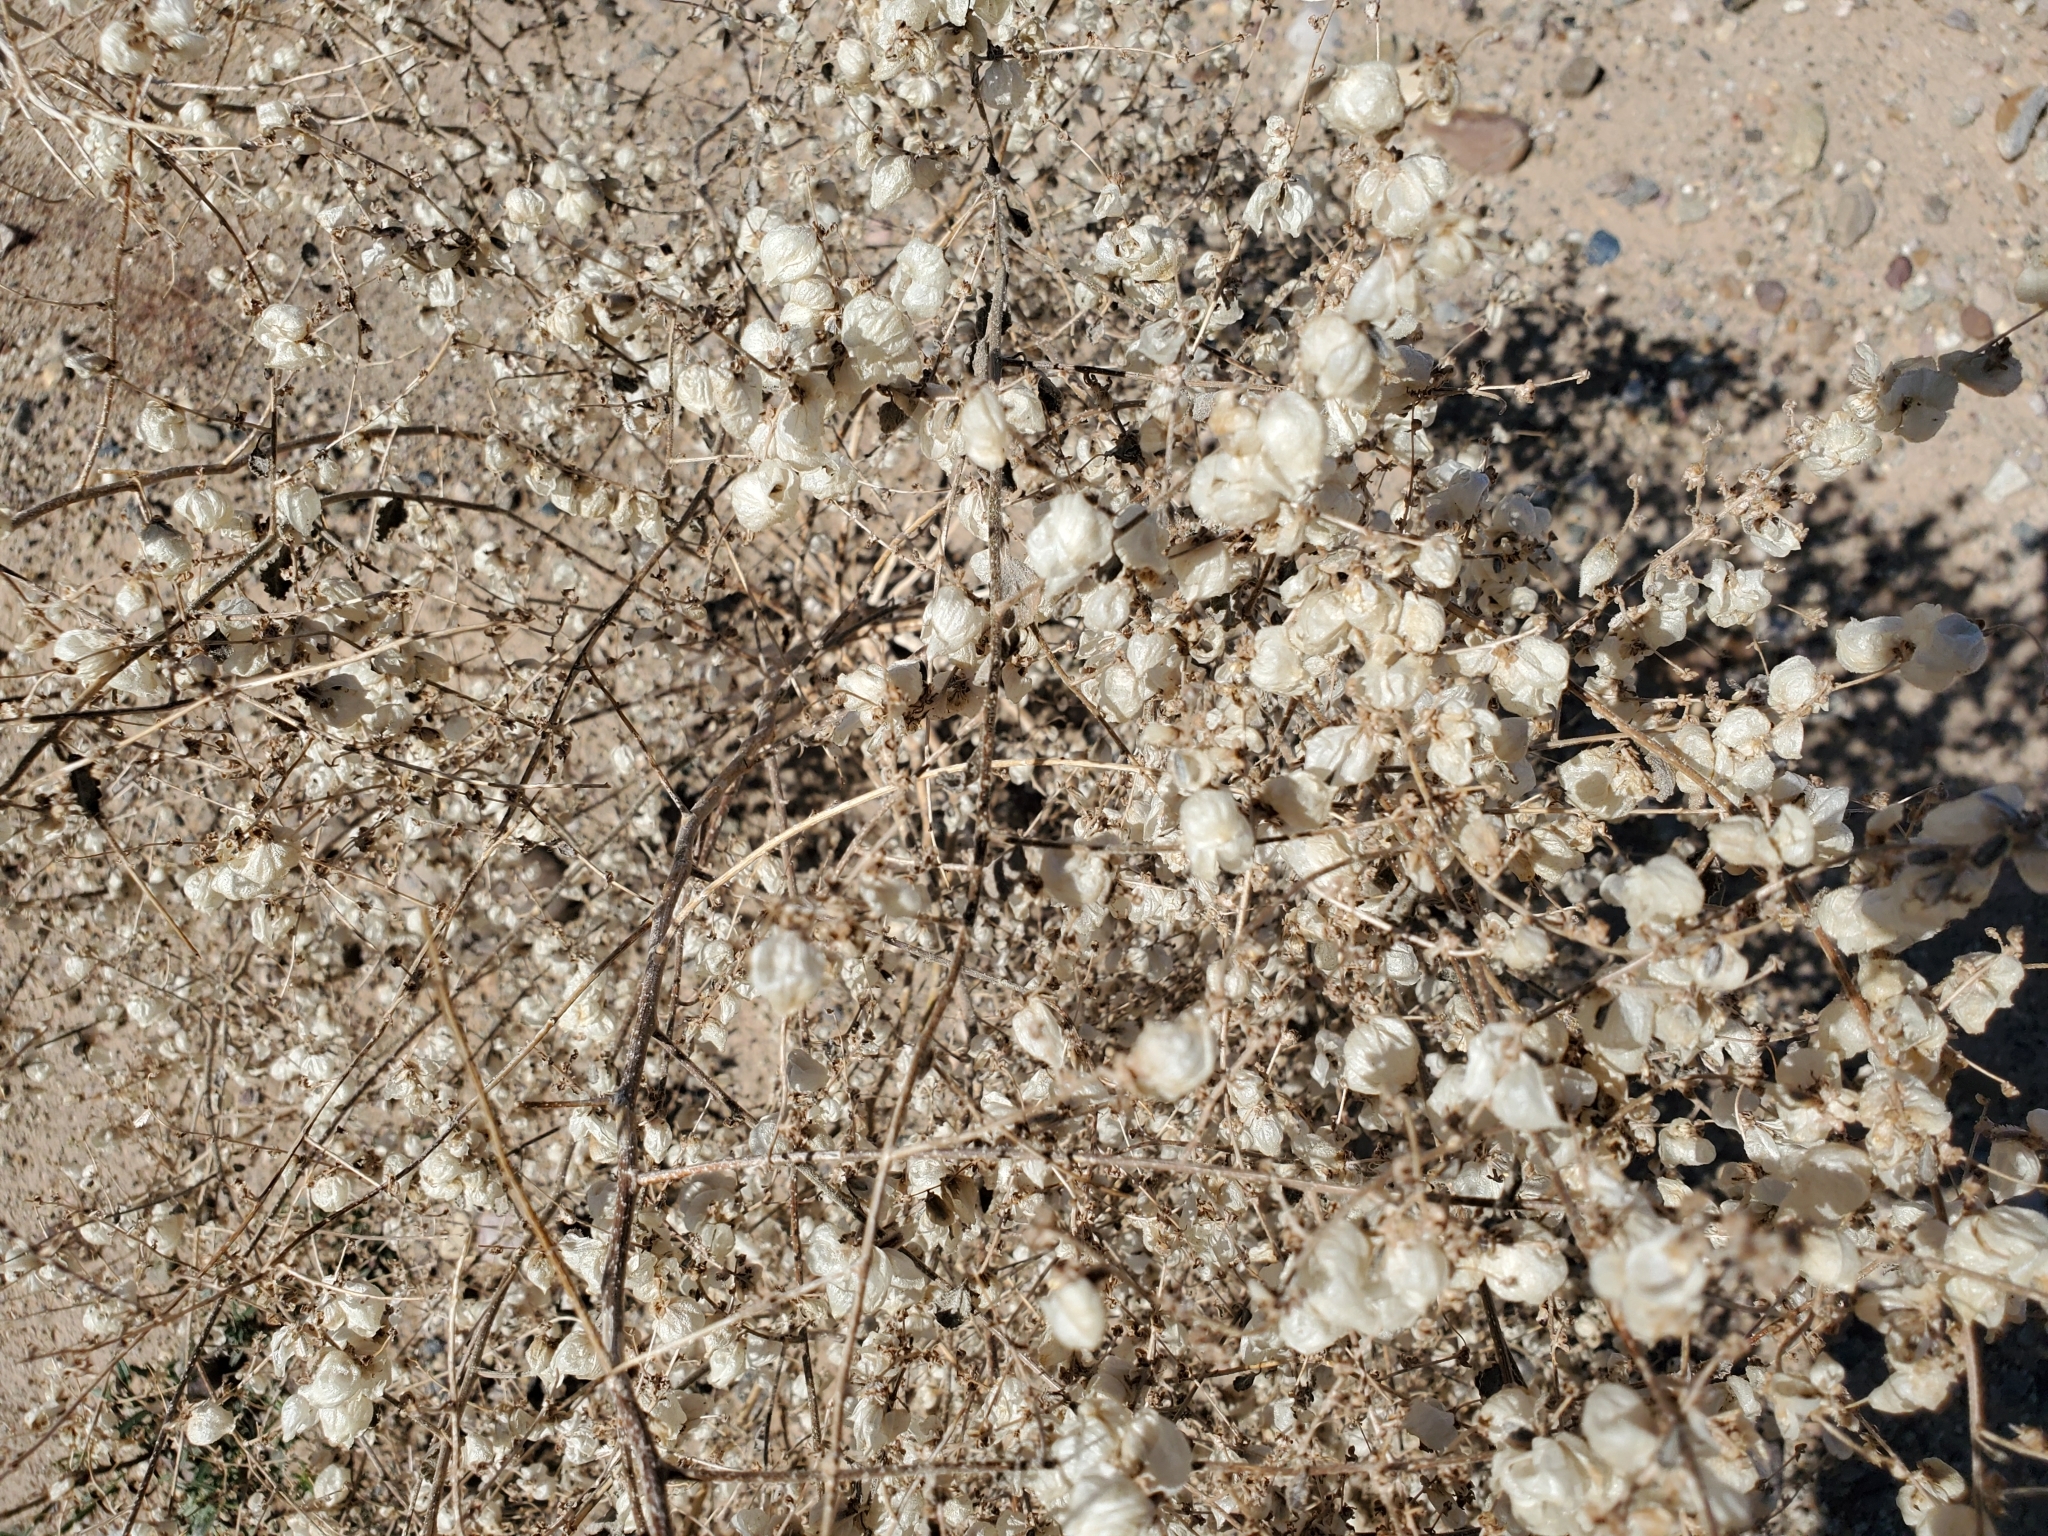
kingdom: Plantae
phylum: Tracheophyta
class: Magnoliopsida
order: Asterales
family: Asteraceae
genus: Dicoria
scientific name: Dicoria canescens
